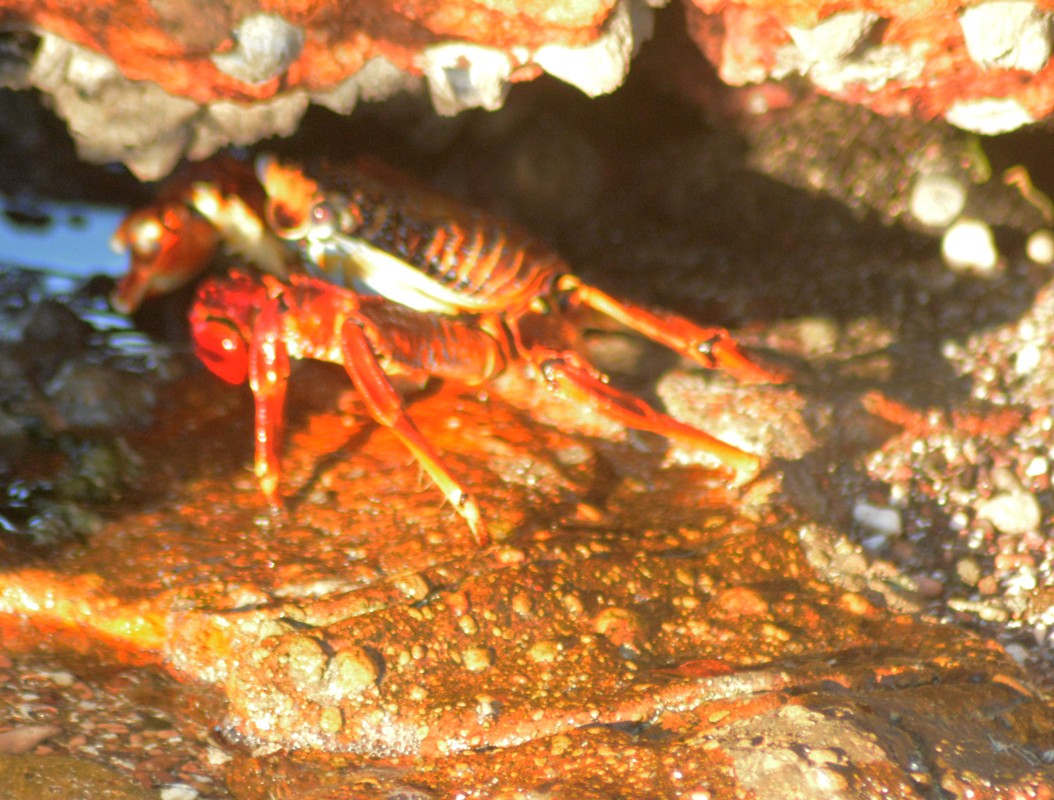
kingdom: Animalia
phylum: Arthropoda
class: Malacostraca
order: Decapoda
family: Grapsidae
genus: Grapsus
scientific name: Grapsus grapsus
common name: Sally lightfoot
